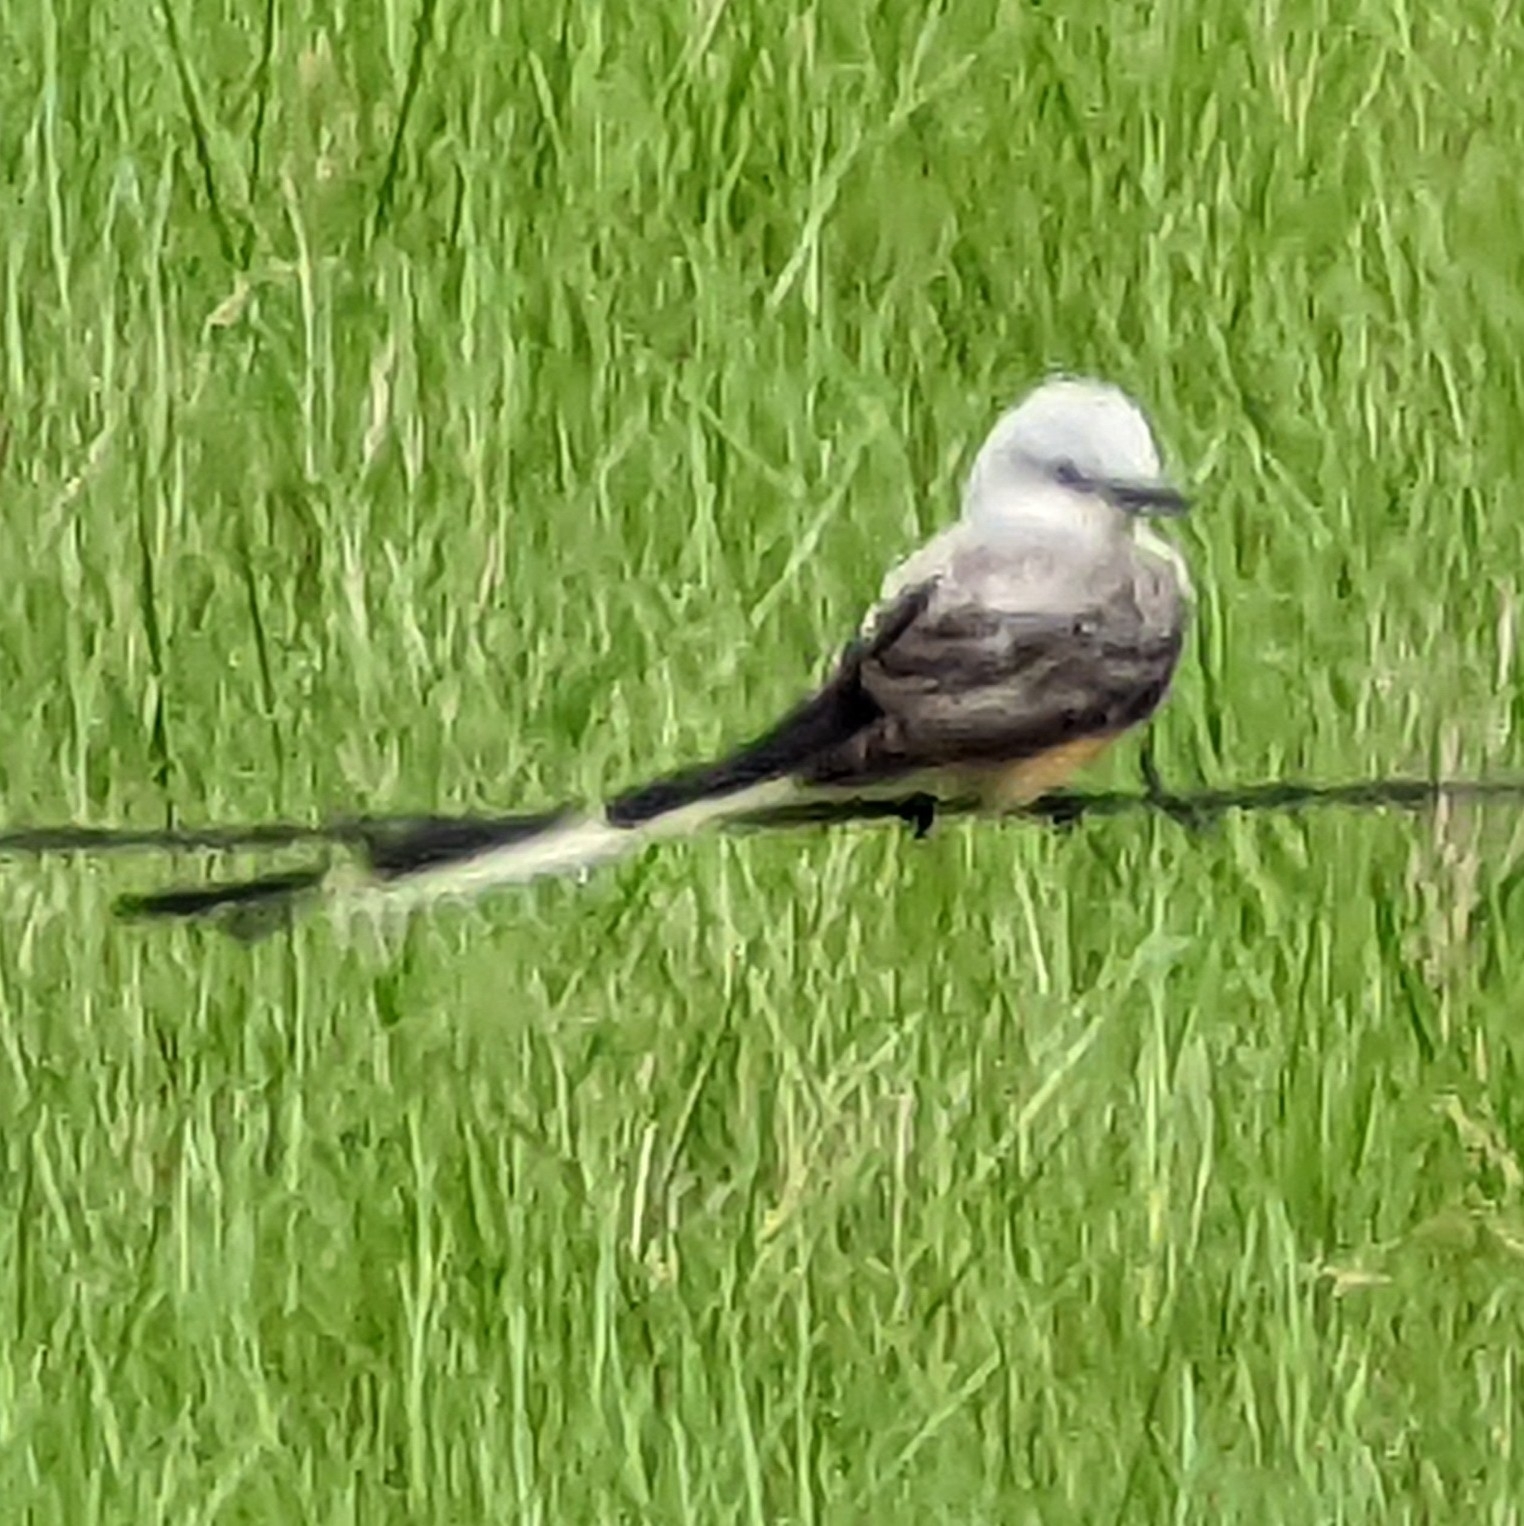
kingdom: Animalia
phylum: Chordata
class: Aves
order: Passeriformes
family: Tyrannidae
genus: Tyrannus
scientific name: Tyrannus forficatus
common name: Scissor-tailed flycatcher
